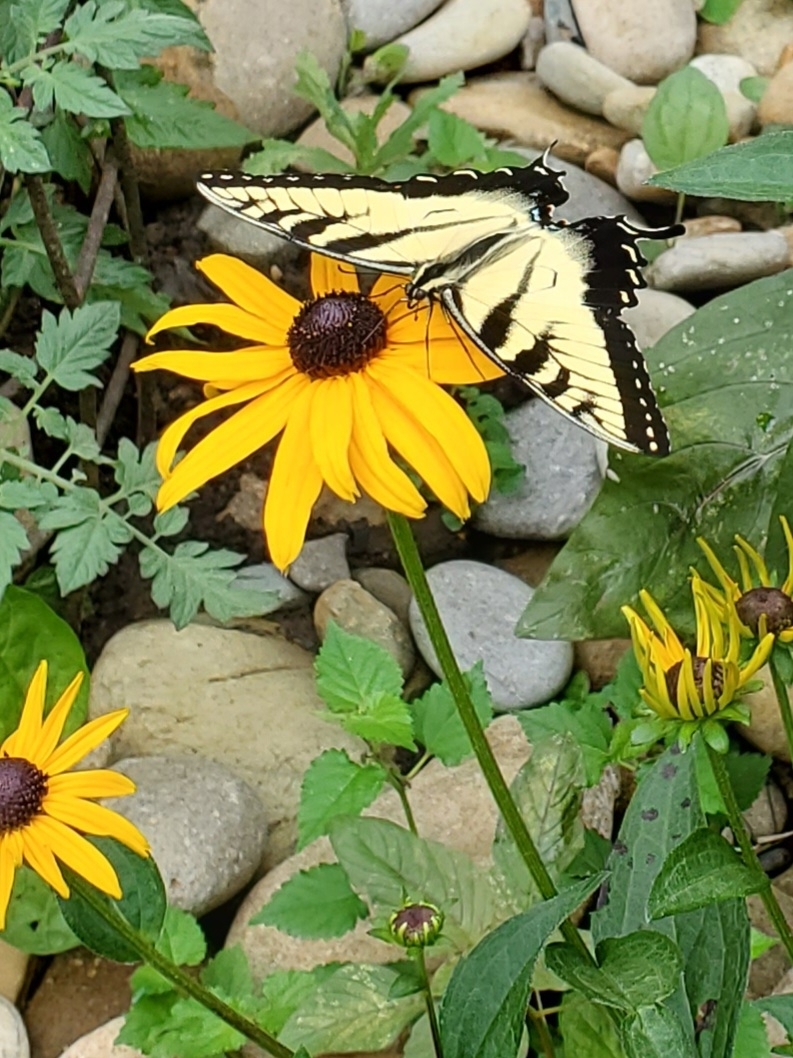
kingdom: Animalia
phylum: Arthropoda
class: Insecta
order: Lepidoptera
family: Papilionidae
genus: Papilio
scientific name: Papilio glaucus
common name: Tiger swallowtail
